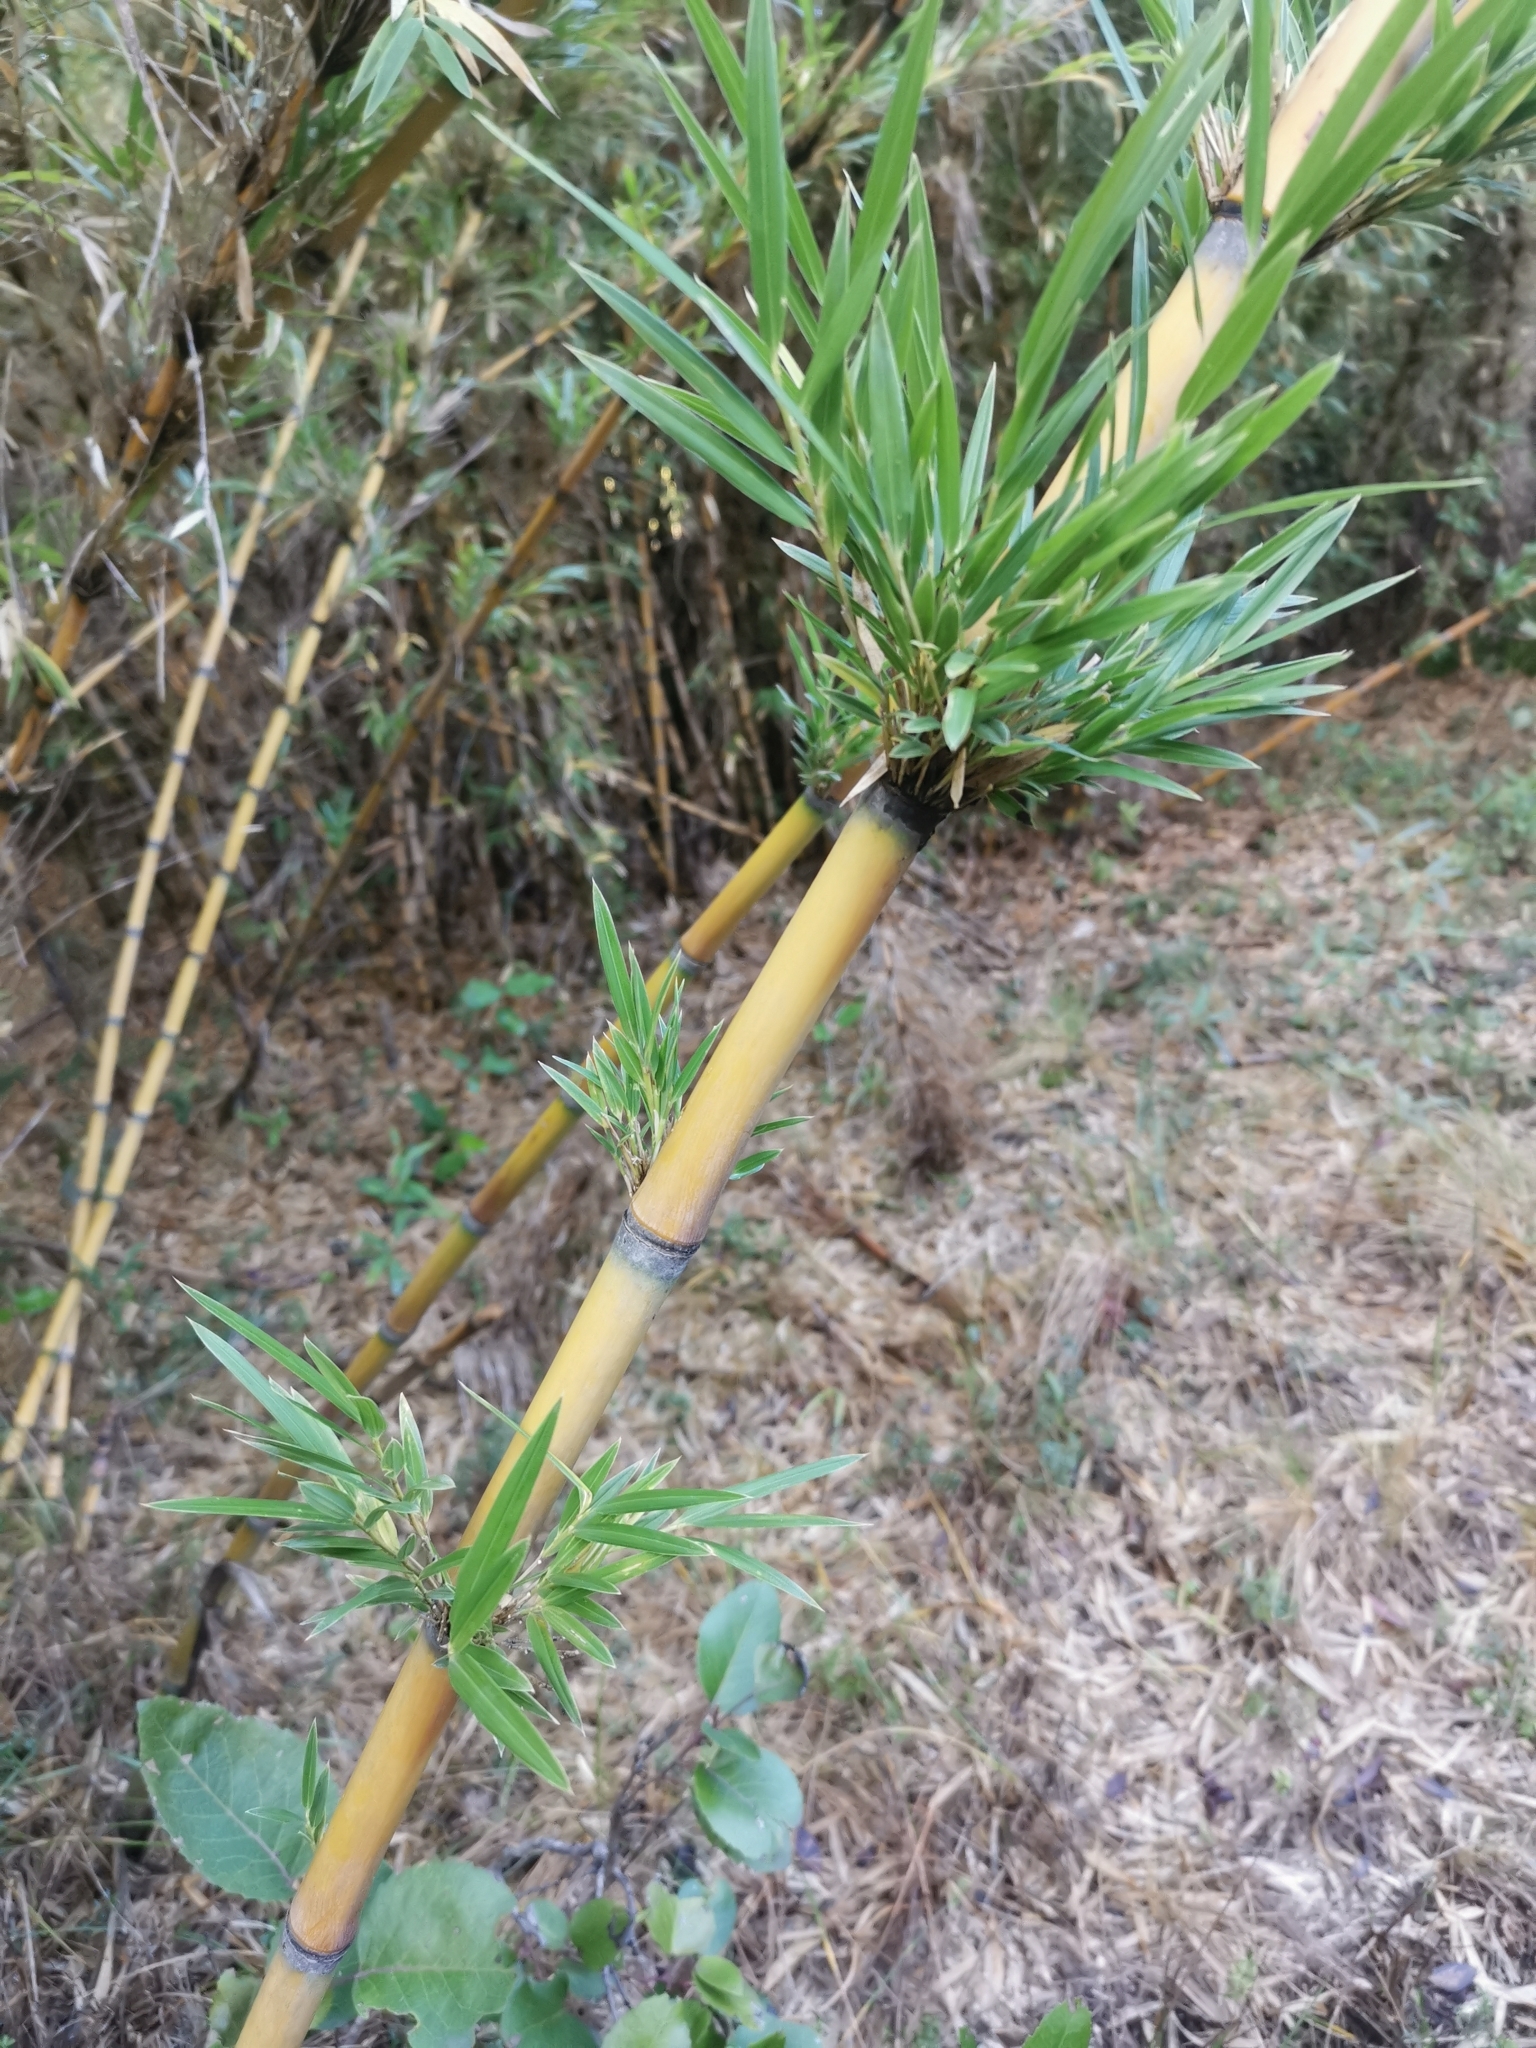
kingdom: Plantae
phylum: Tracheophyta
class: Liliopsida
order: Poales
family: Poaceae
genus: Chusquea
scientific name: Chusquea culeou
